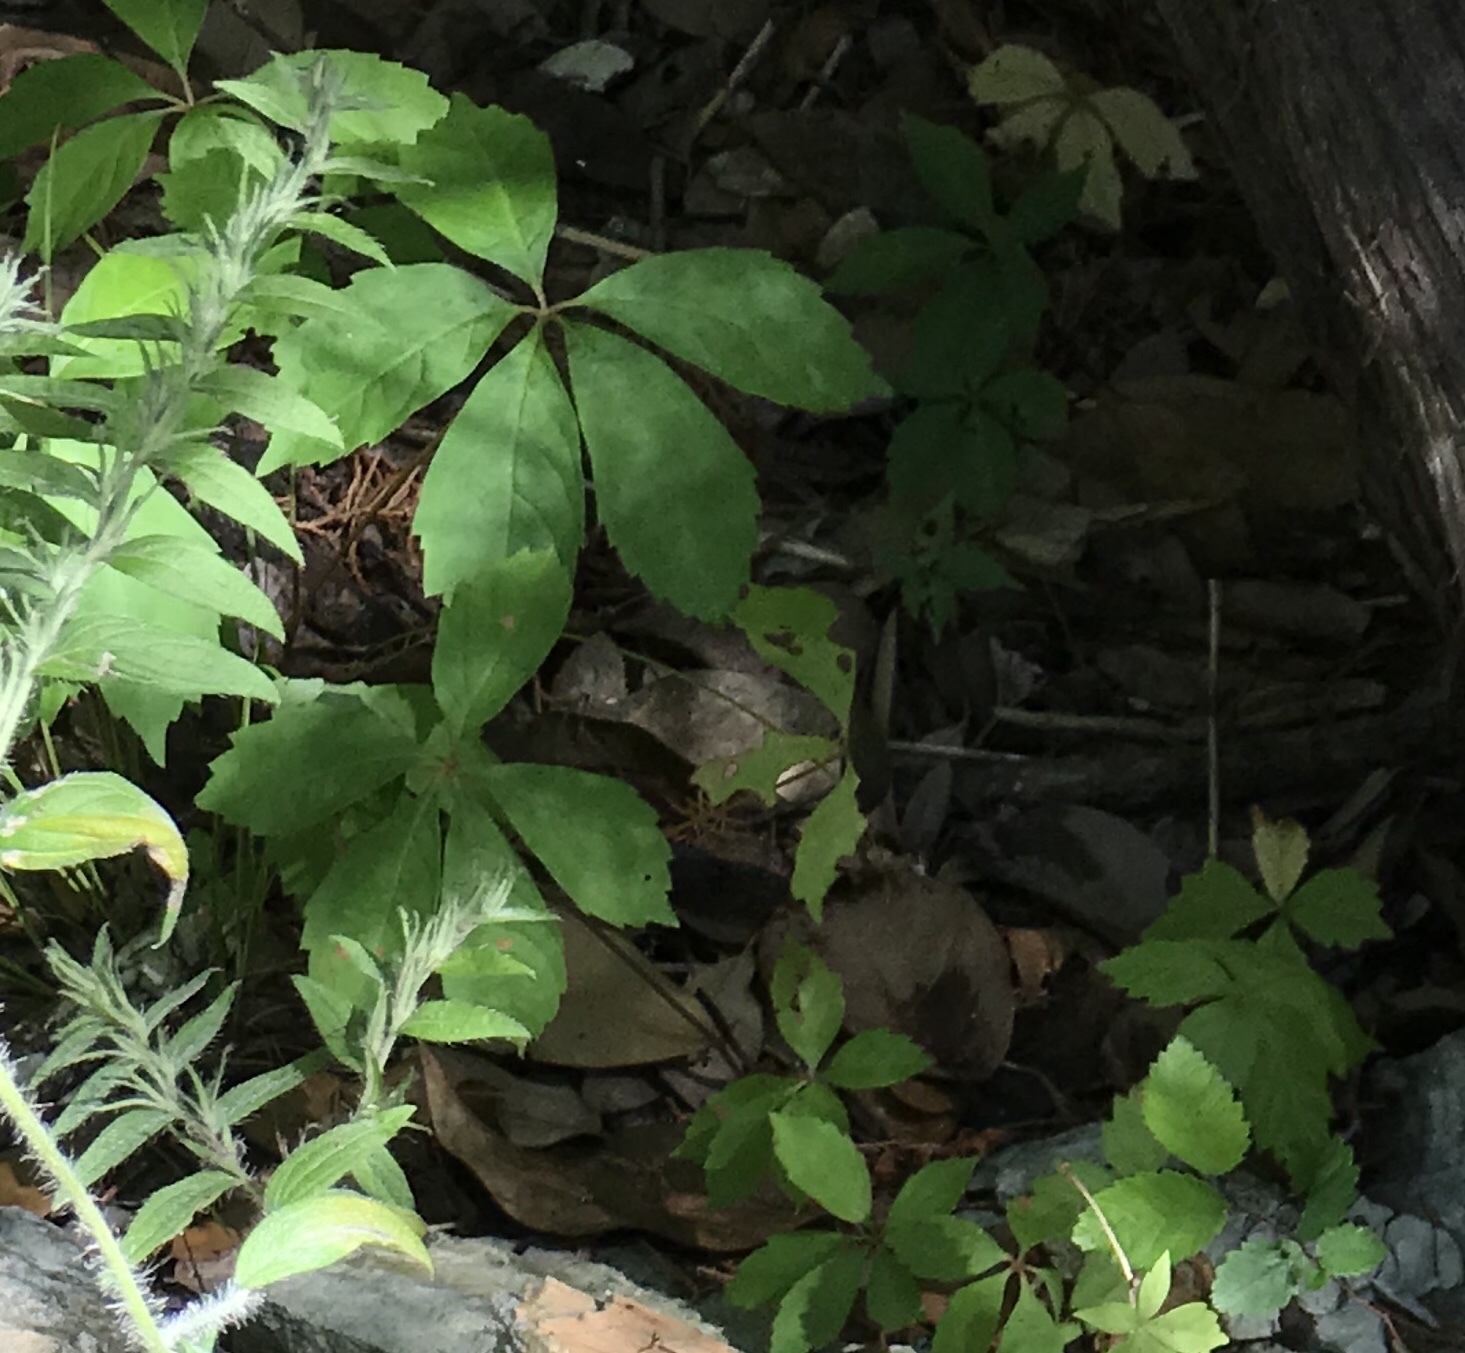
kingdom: Plantae
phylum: Tracheophyta
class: Magnoliopsida
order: Vitales
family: Vitaceae
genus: Parthenocissus
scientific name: Parthenocissus quinquefolia
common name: Virginia-creeper
